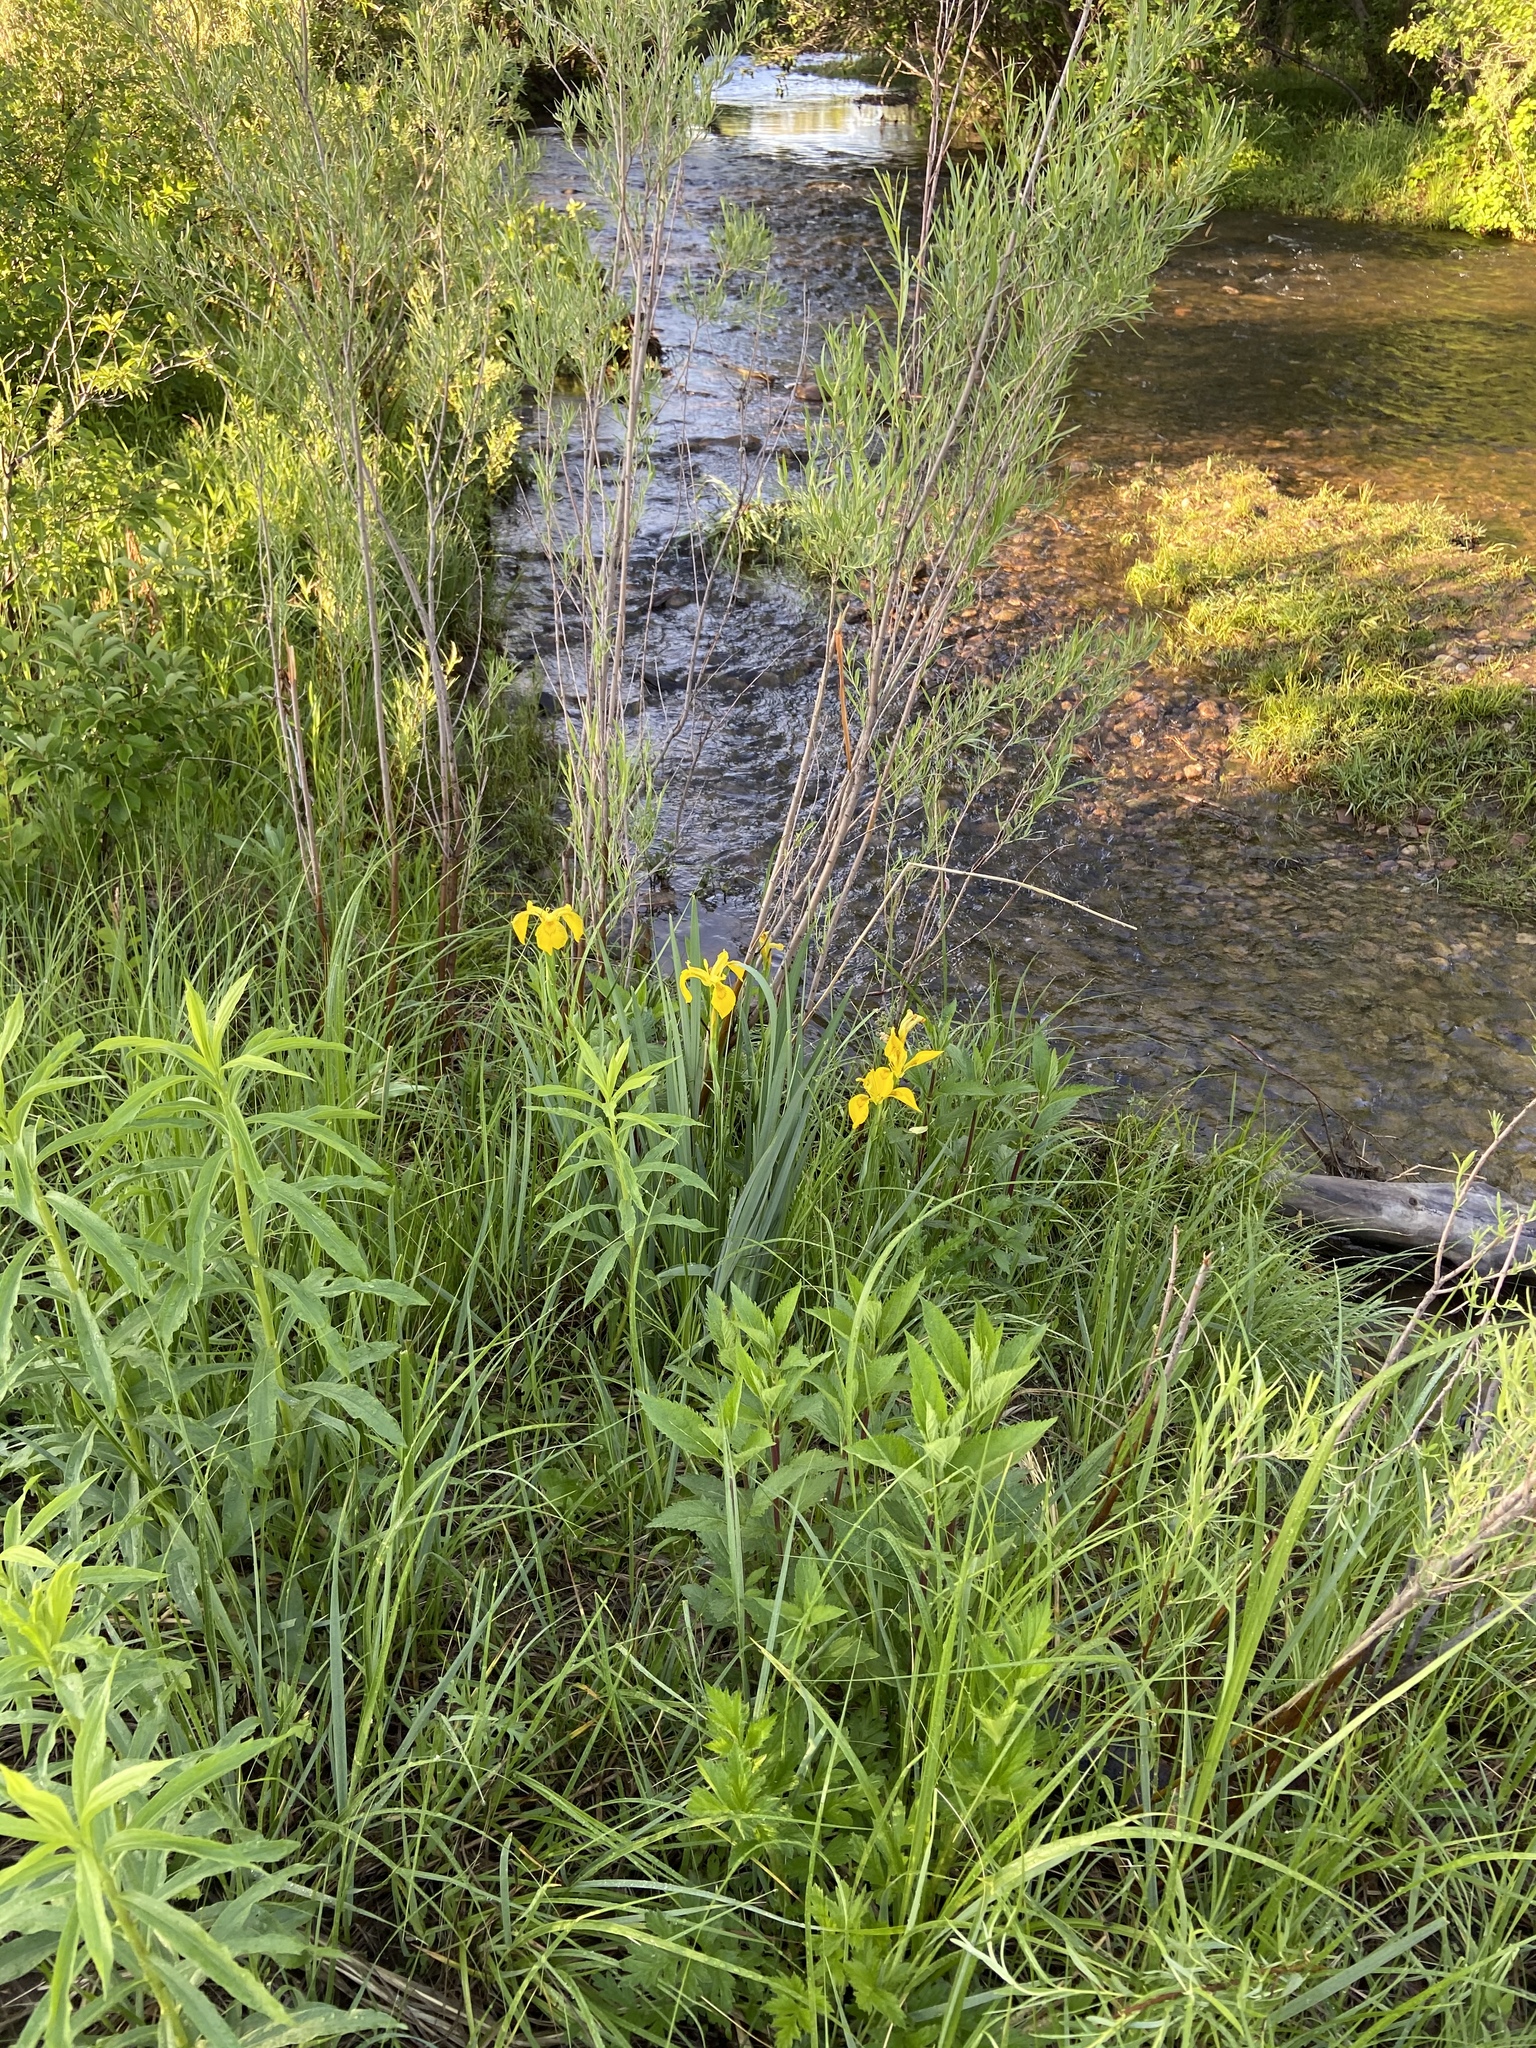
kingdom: Plantae
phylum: Tracheophyta
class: Liliopsida
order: Asparagales
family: Iridaceae
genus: Iris
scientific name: Iris pseudacorus
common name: Yellow flag
